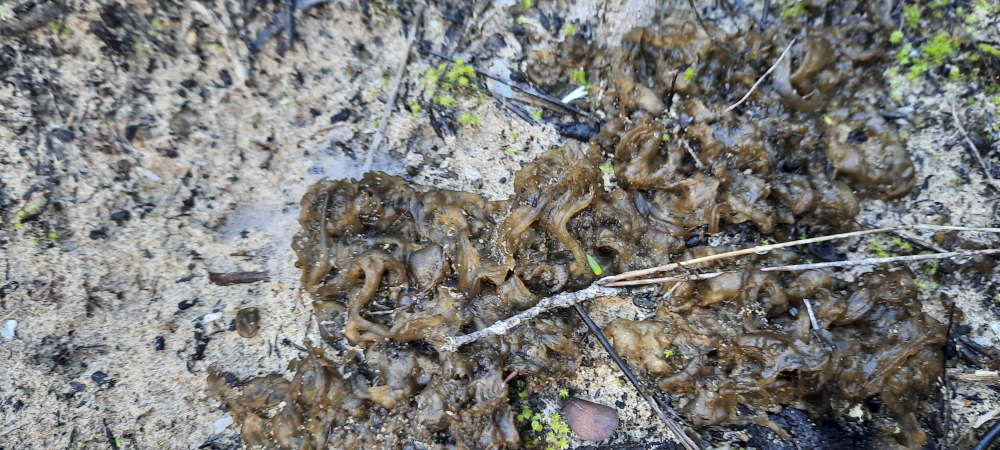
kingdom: Bacteria
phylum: Cyanobacteria
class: Cyanobacteriia
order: Cyanobacteriales
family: Nostocaceae
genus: Nostoc
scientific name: Nostoc commune
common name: Star jelly
